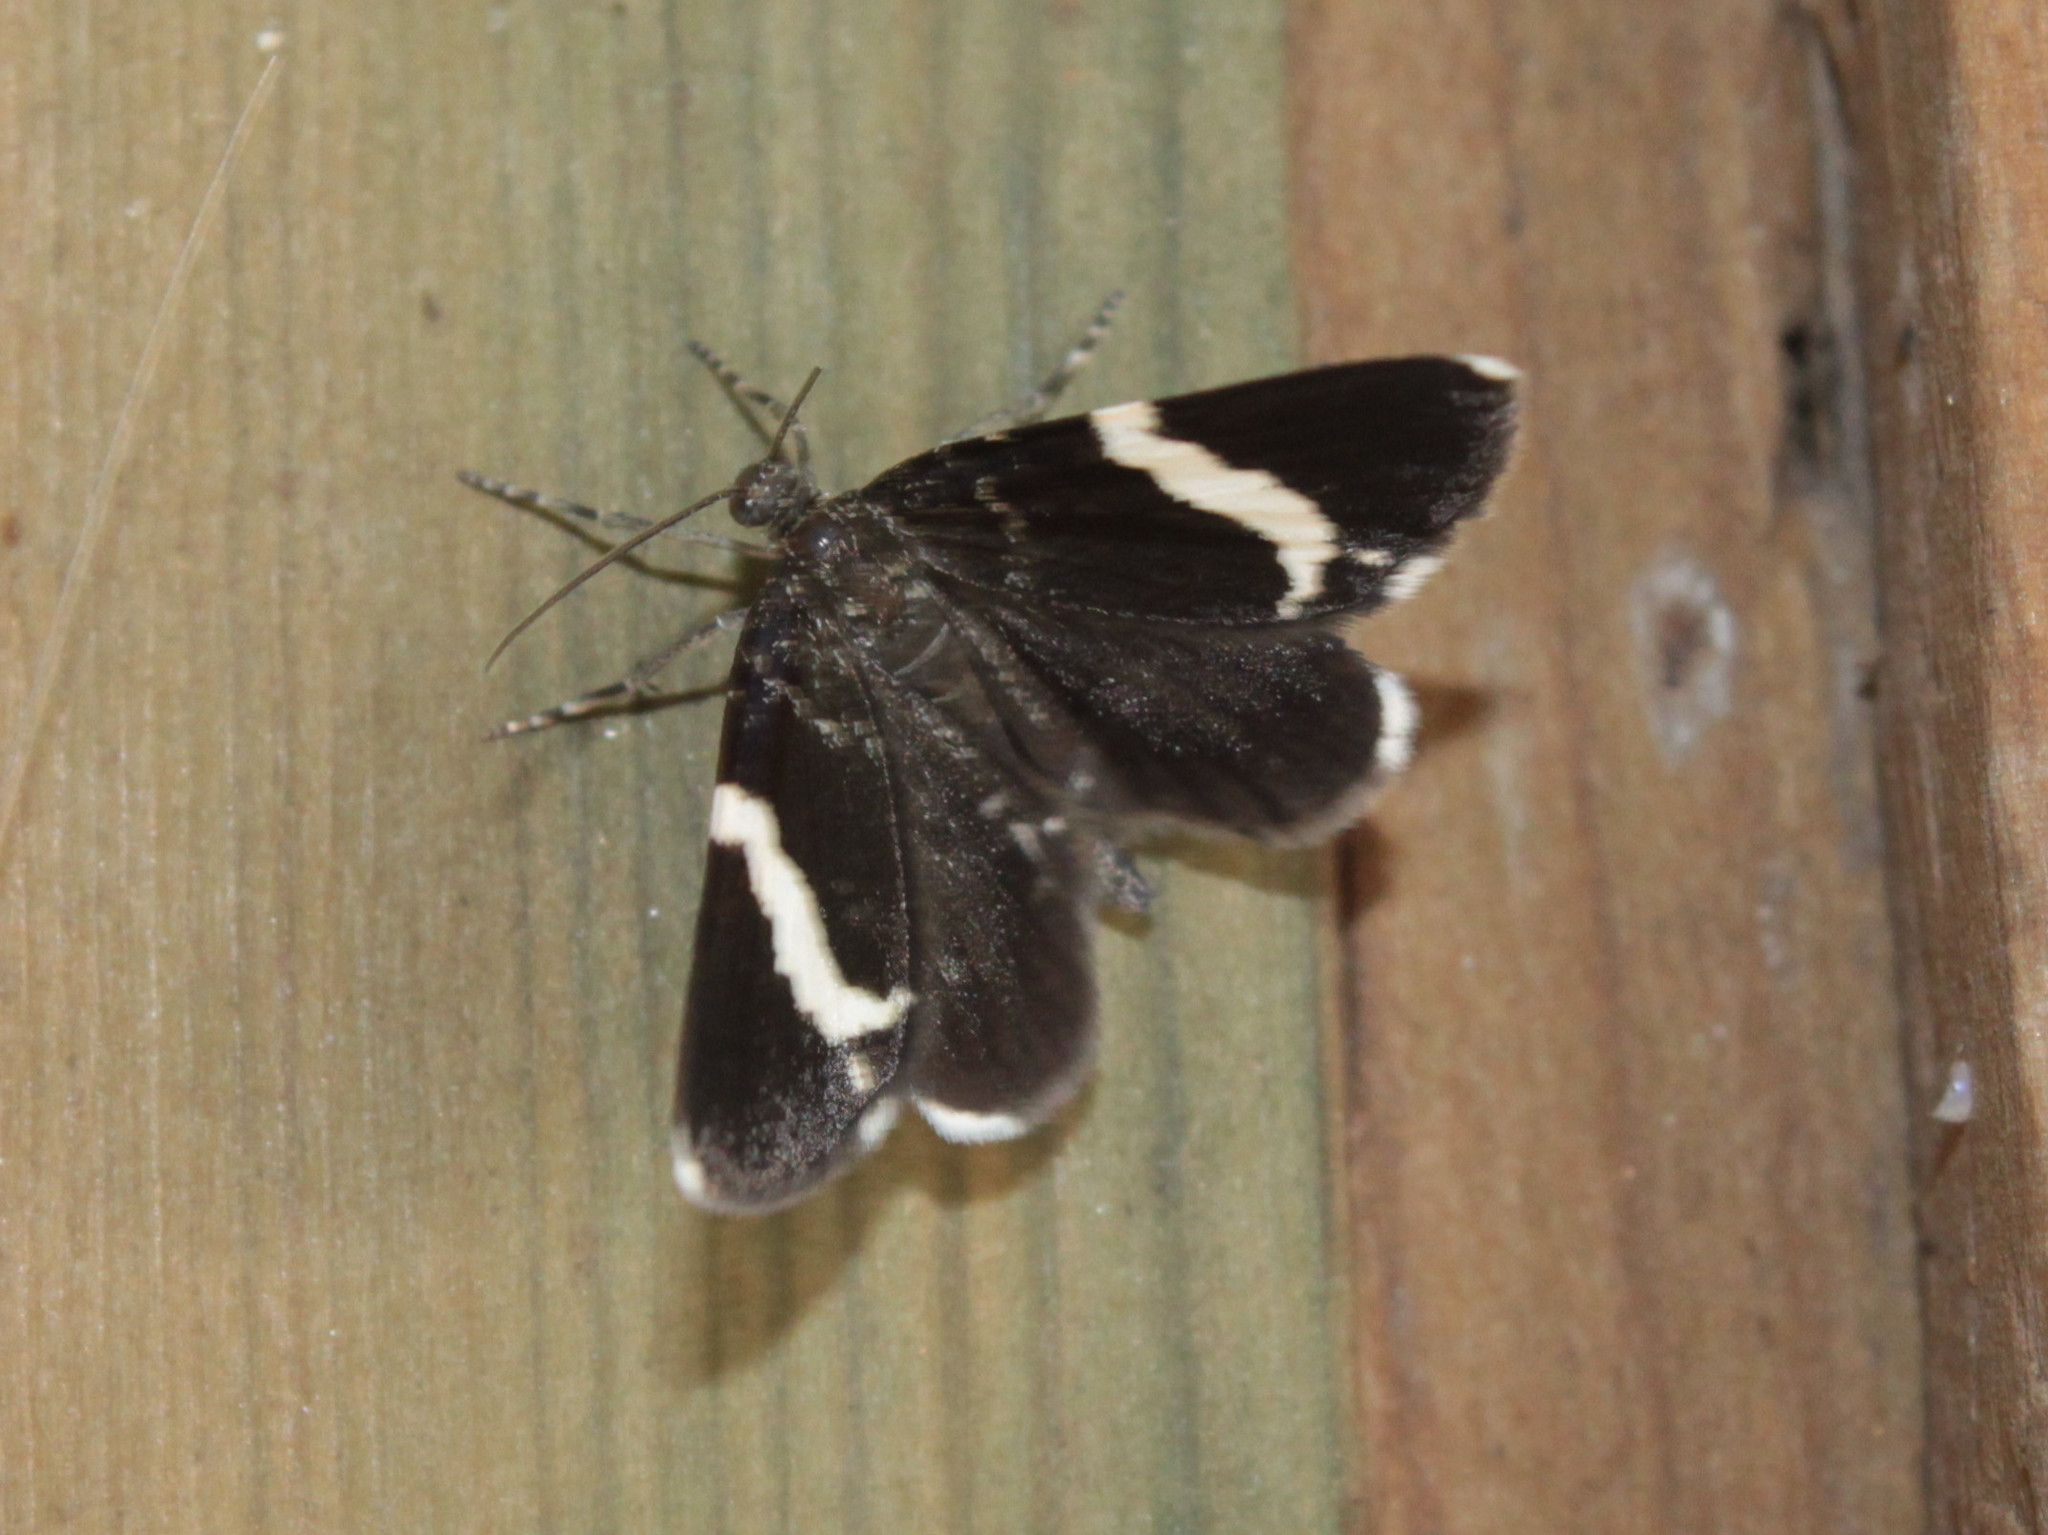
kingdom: Animalia
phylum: Arthropoda
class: Insecta
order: Lepidoptera
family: Geometridae
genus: Trichodezia
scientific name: Trichodezia albovittata
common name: White striped black
